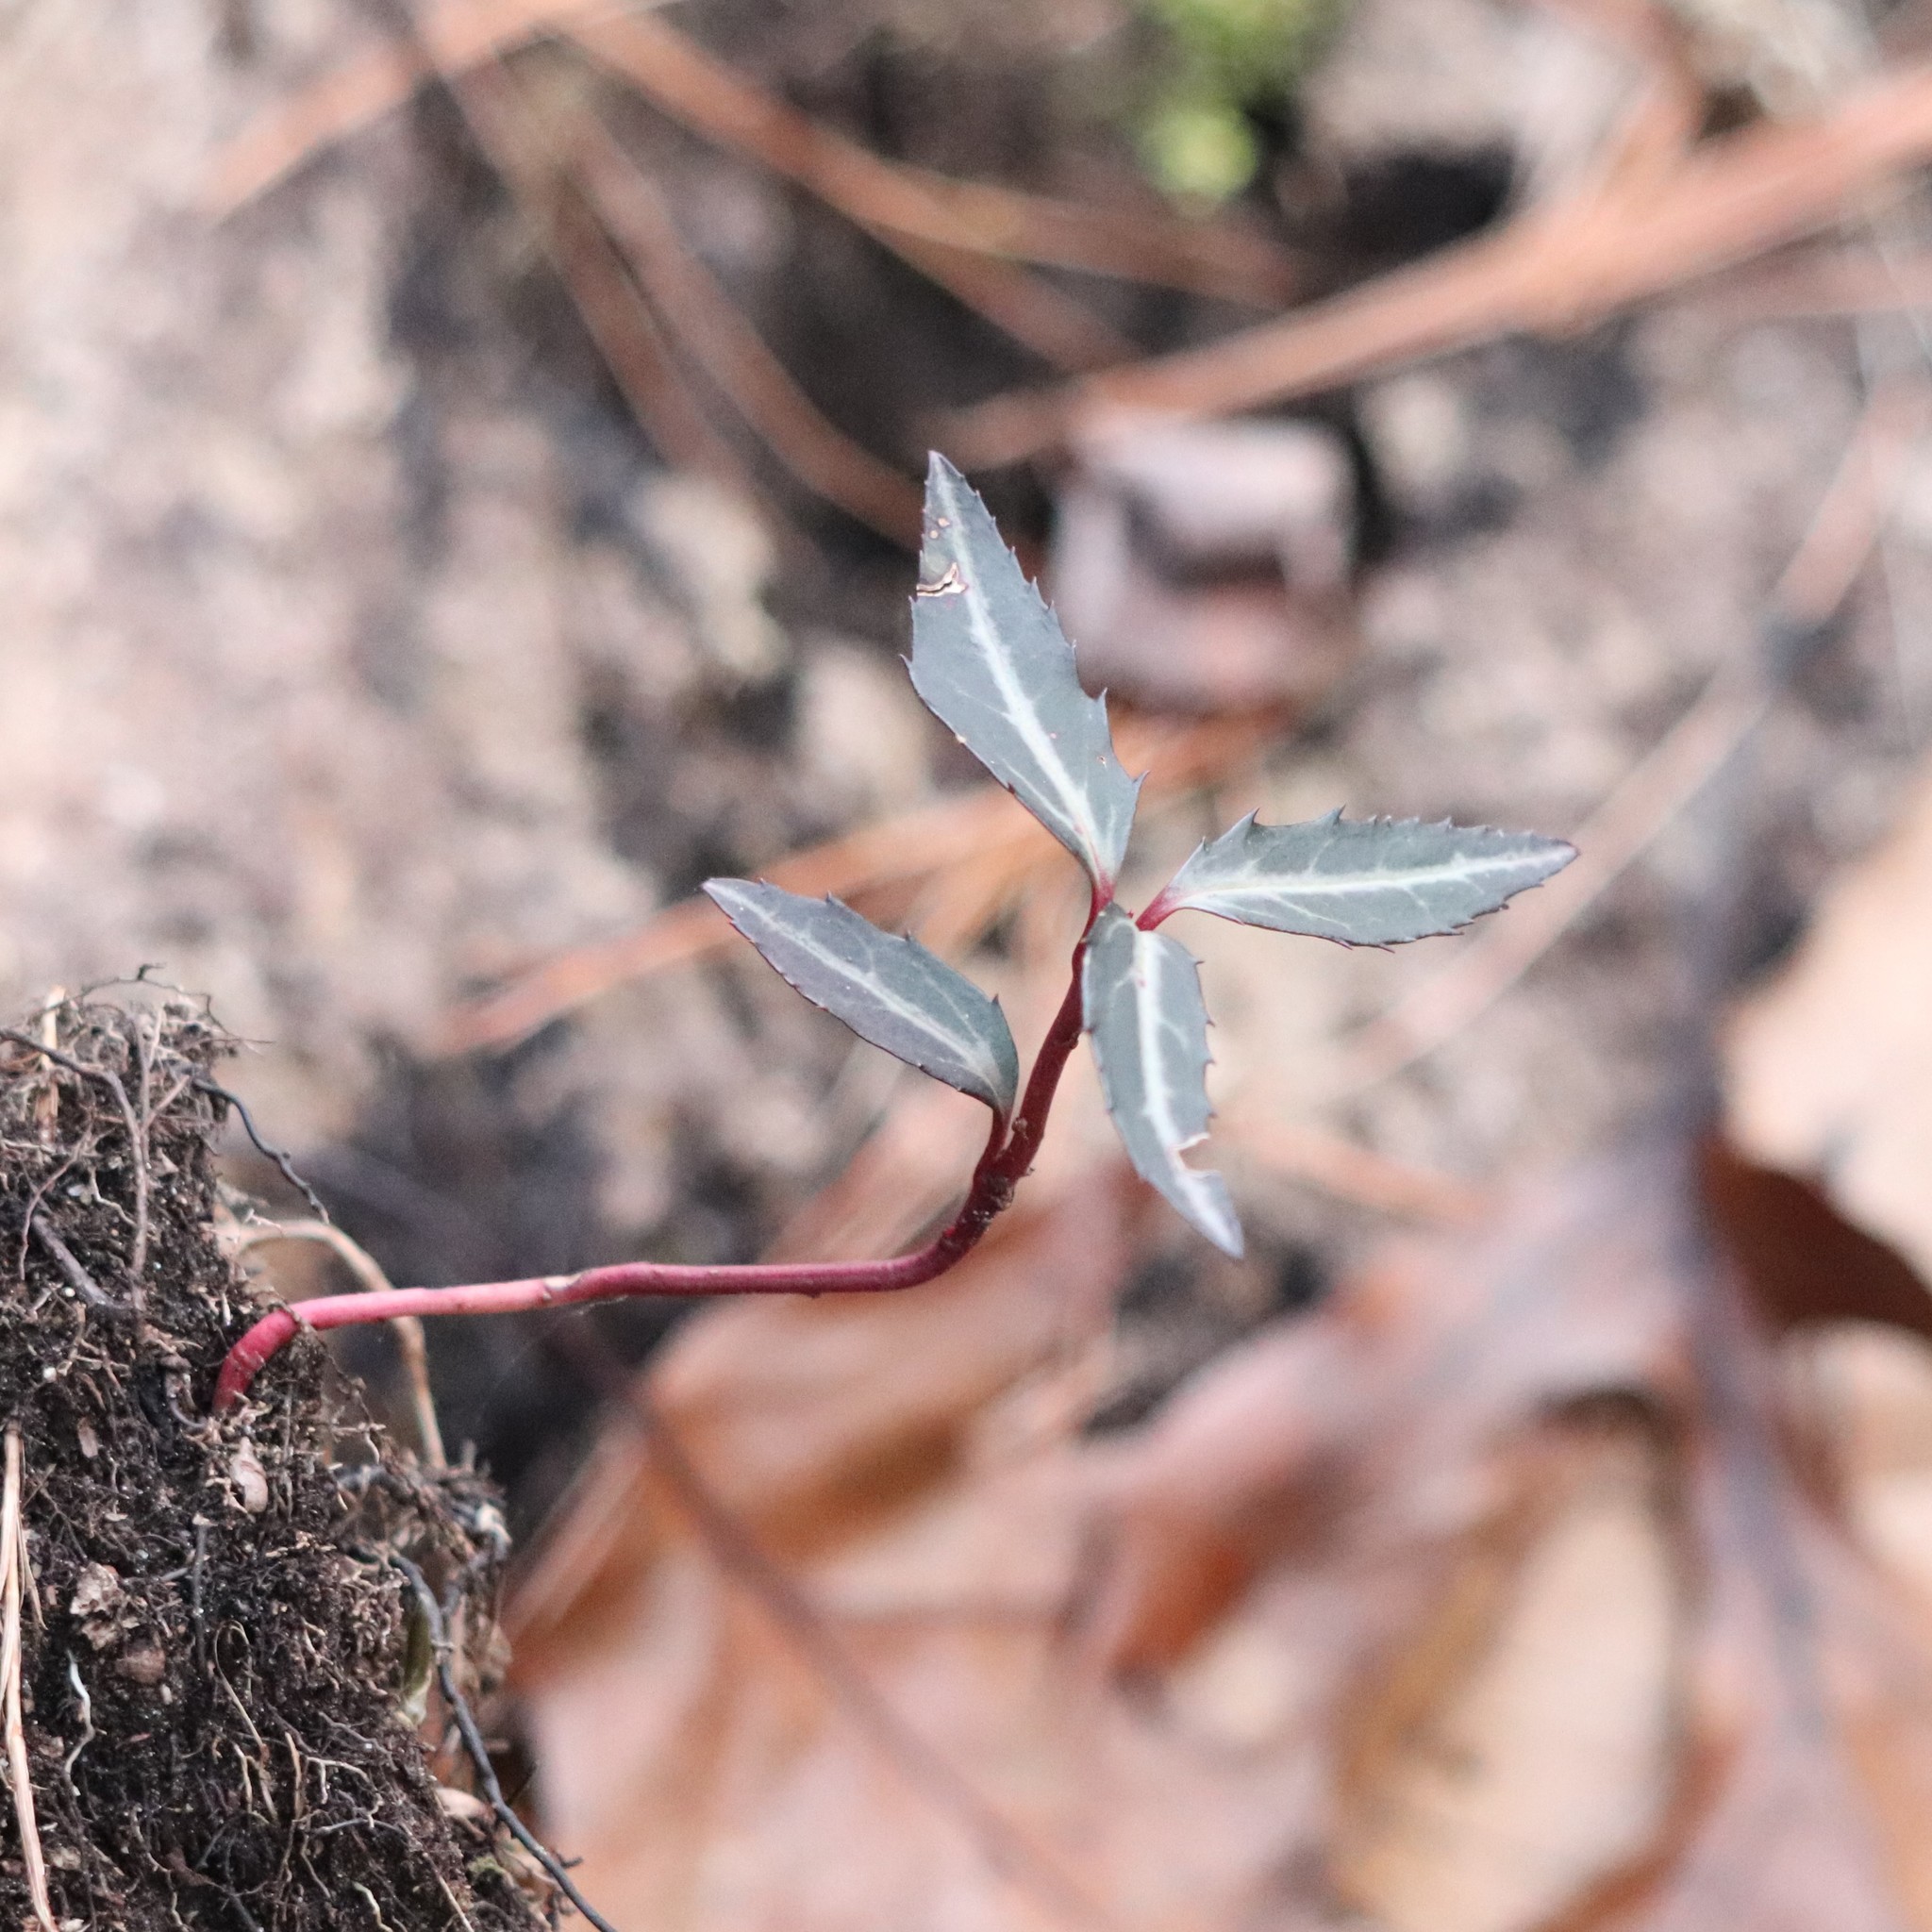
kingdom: Plantae
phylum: Tracheophyta
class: Magnoliopsida
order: Ericales
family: Ericaceae
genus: Chimaphila
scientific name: Chimaphila maculata
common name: Spotted pipsissewa
